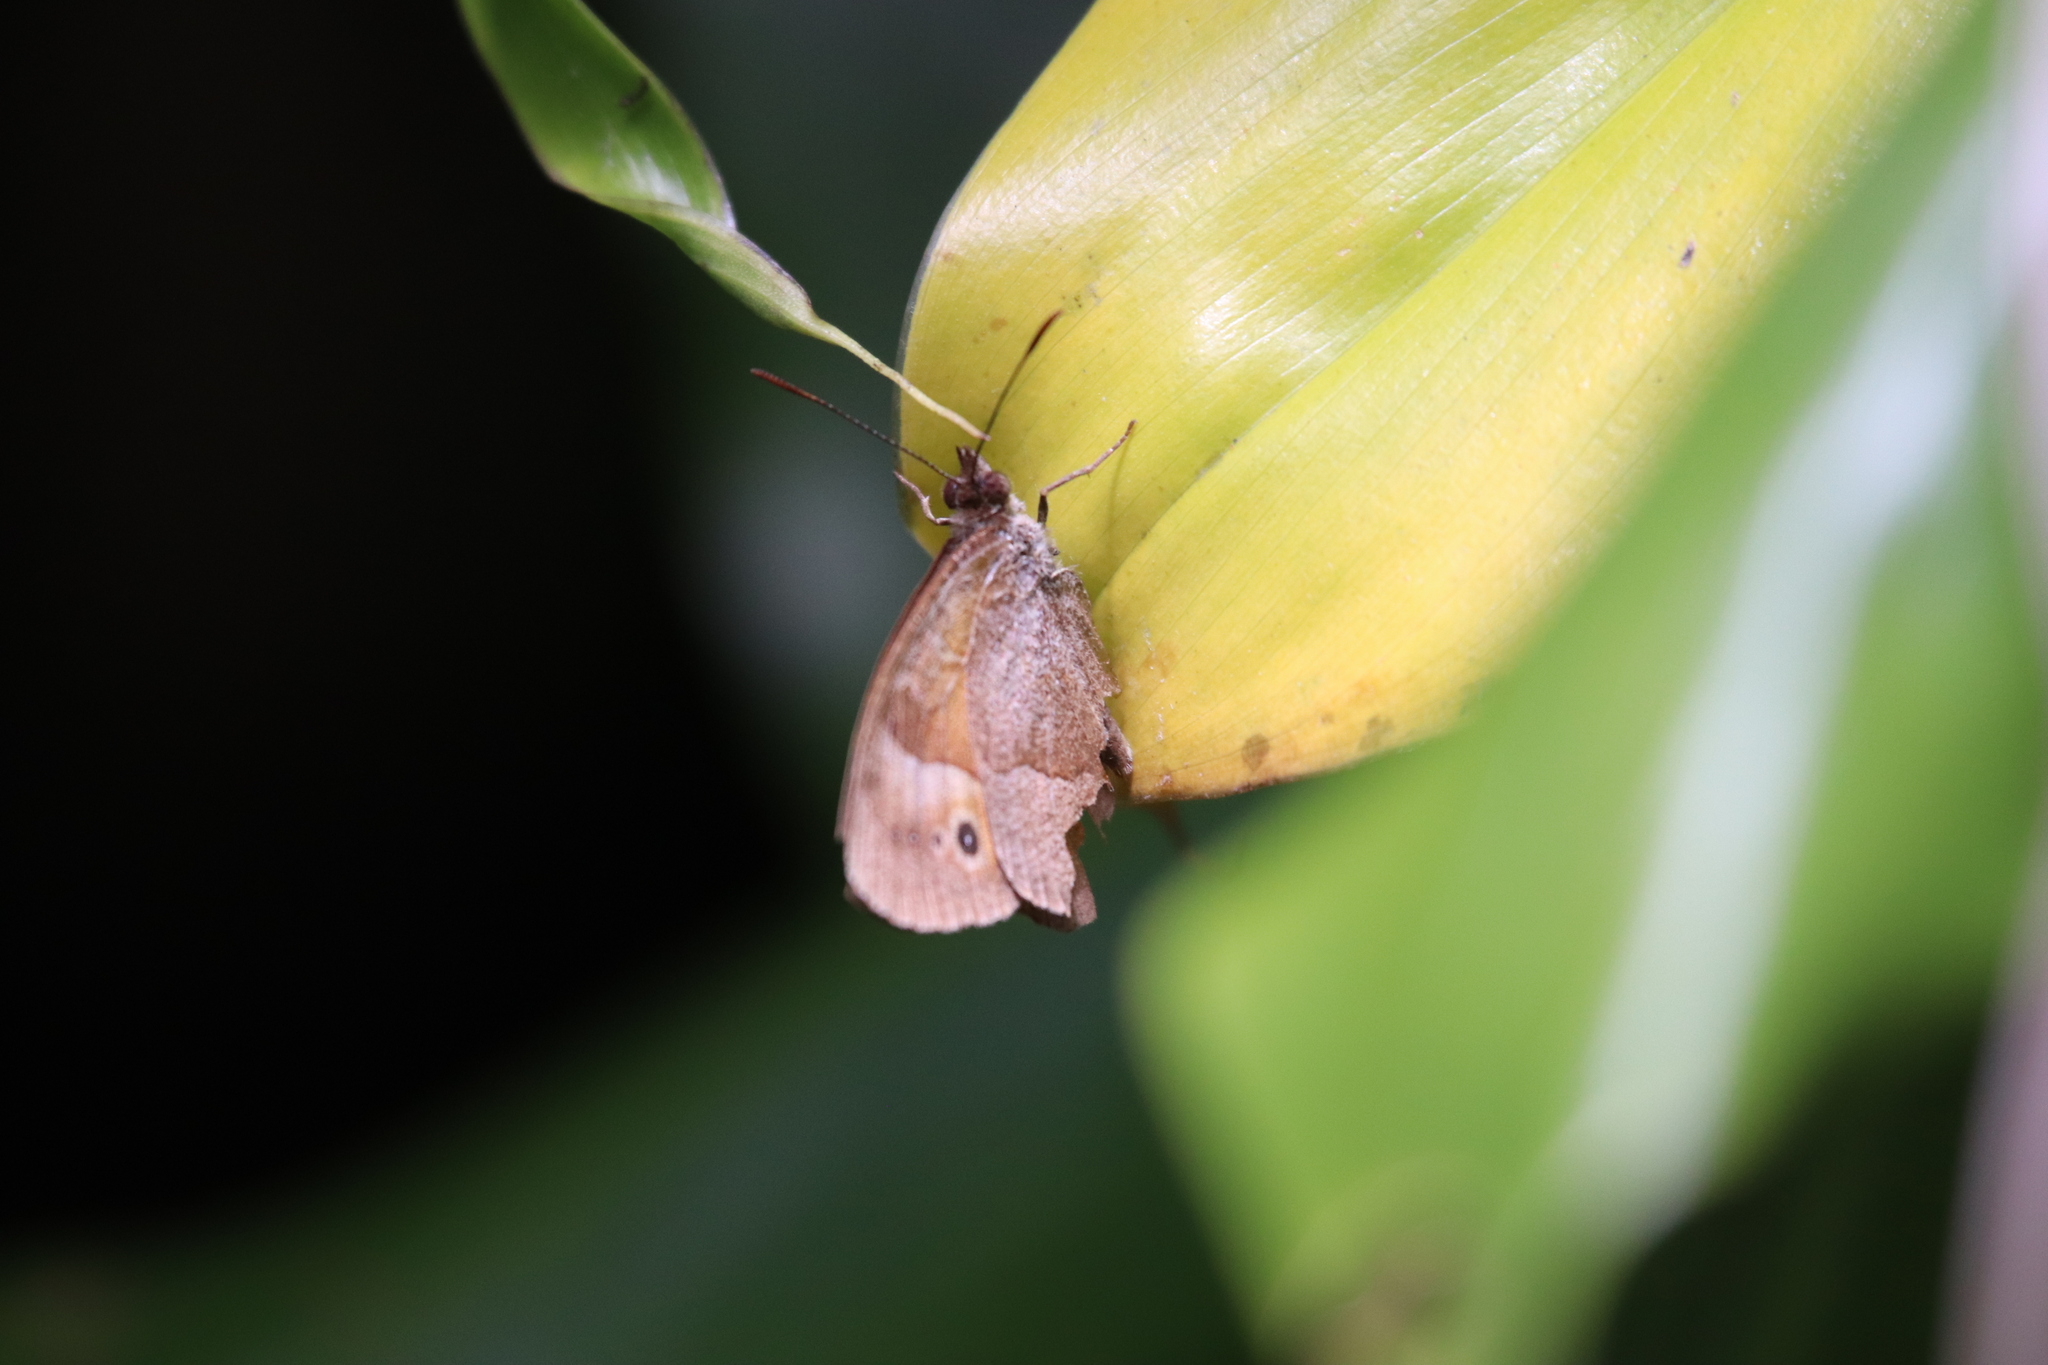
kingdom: Animalia
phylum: Arthropoda
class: Insecta
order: Lepidoptera
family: Nymphalidae
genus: Henotesia
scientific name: Henotesia narcissus
